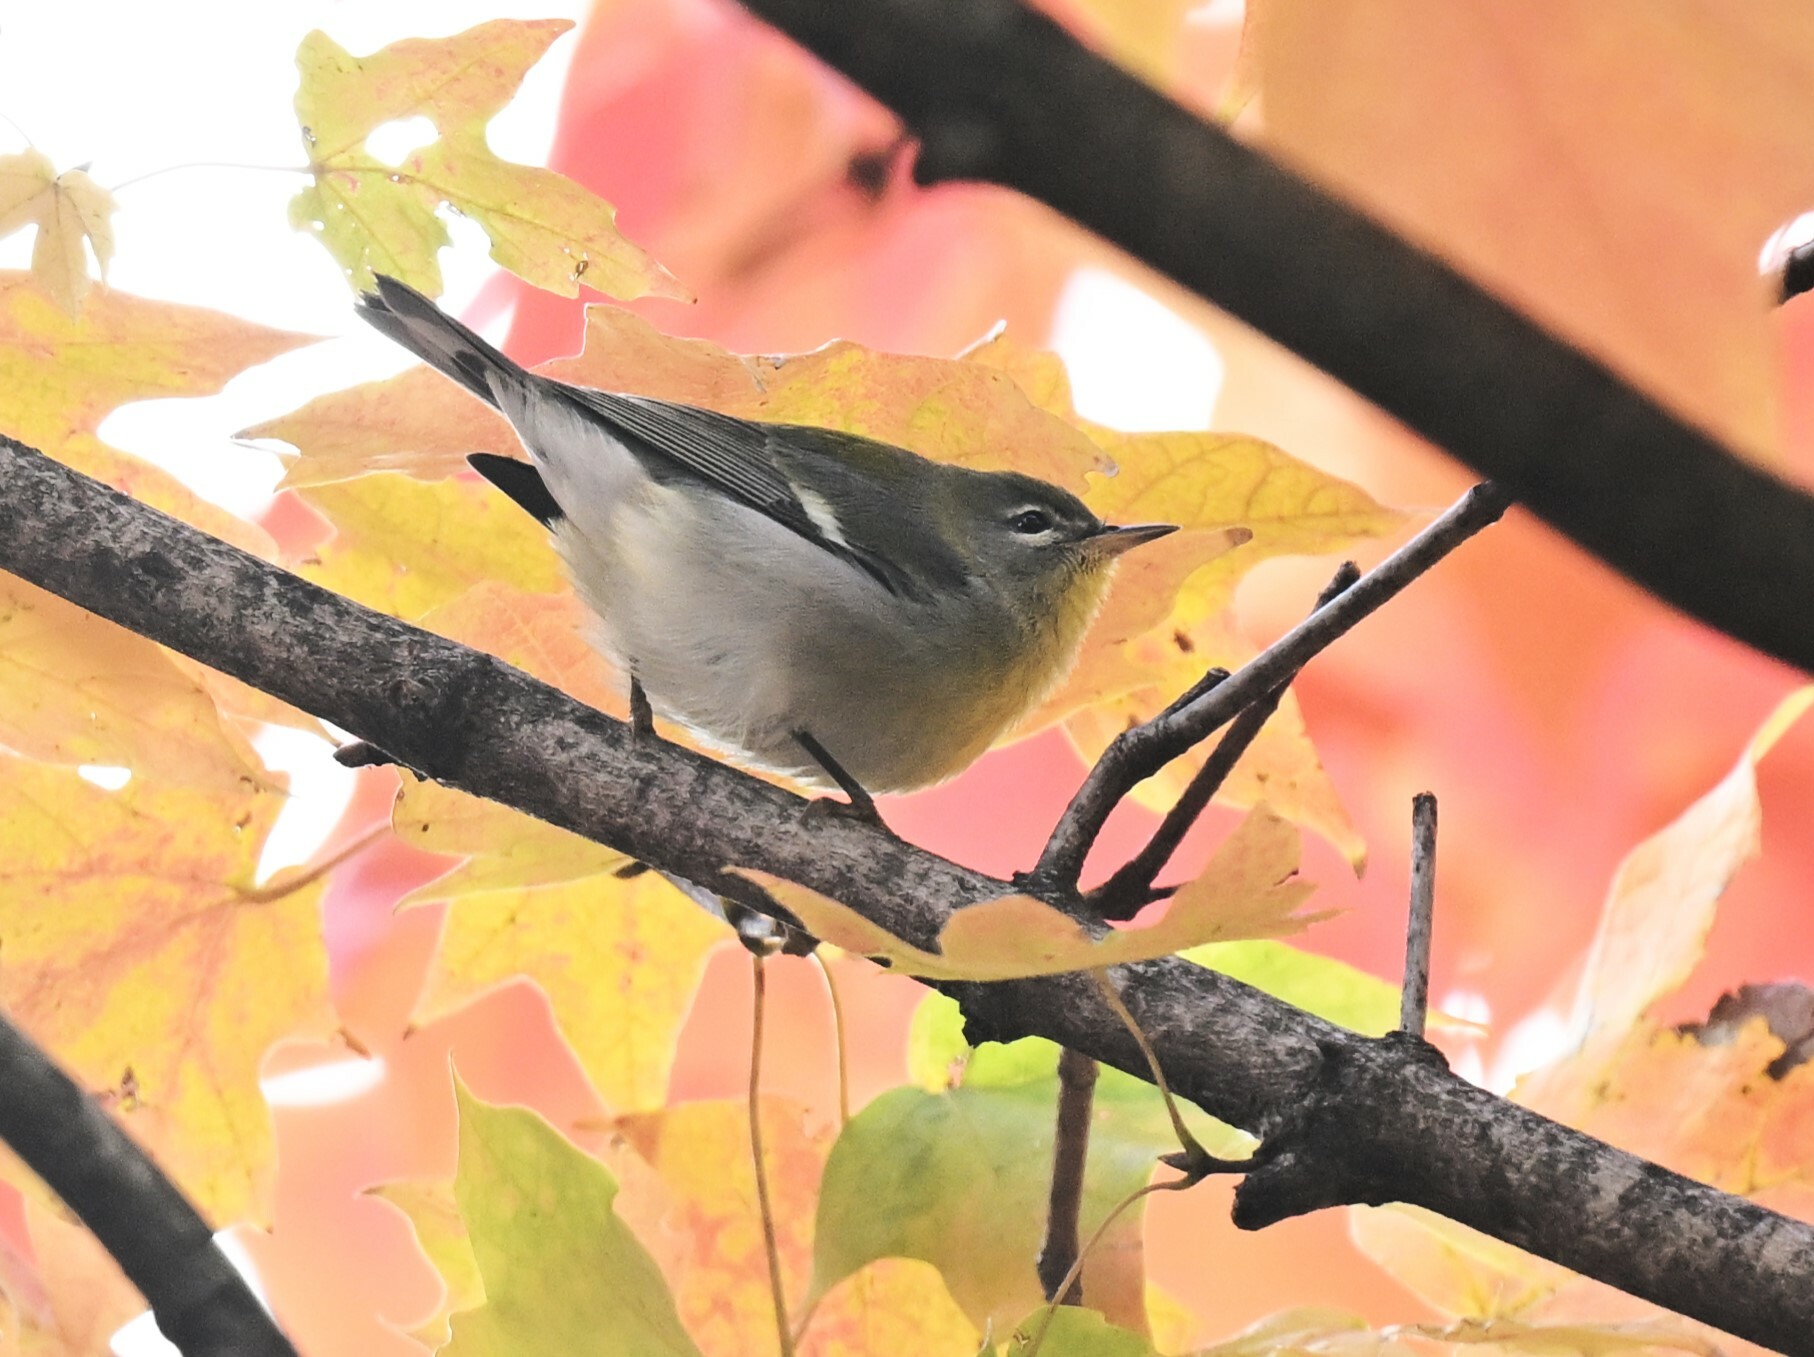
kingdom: Animalia
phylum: Chordata
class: Aves
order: Passeriformes
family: Parulidae
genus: Setophaga
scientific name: Setophaga americana
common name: Northern parula
